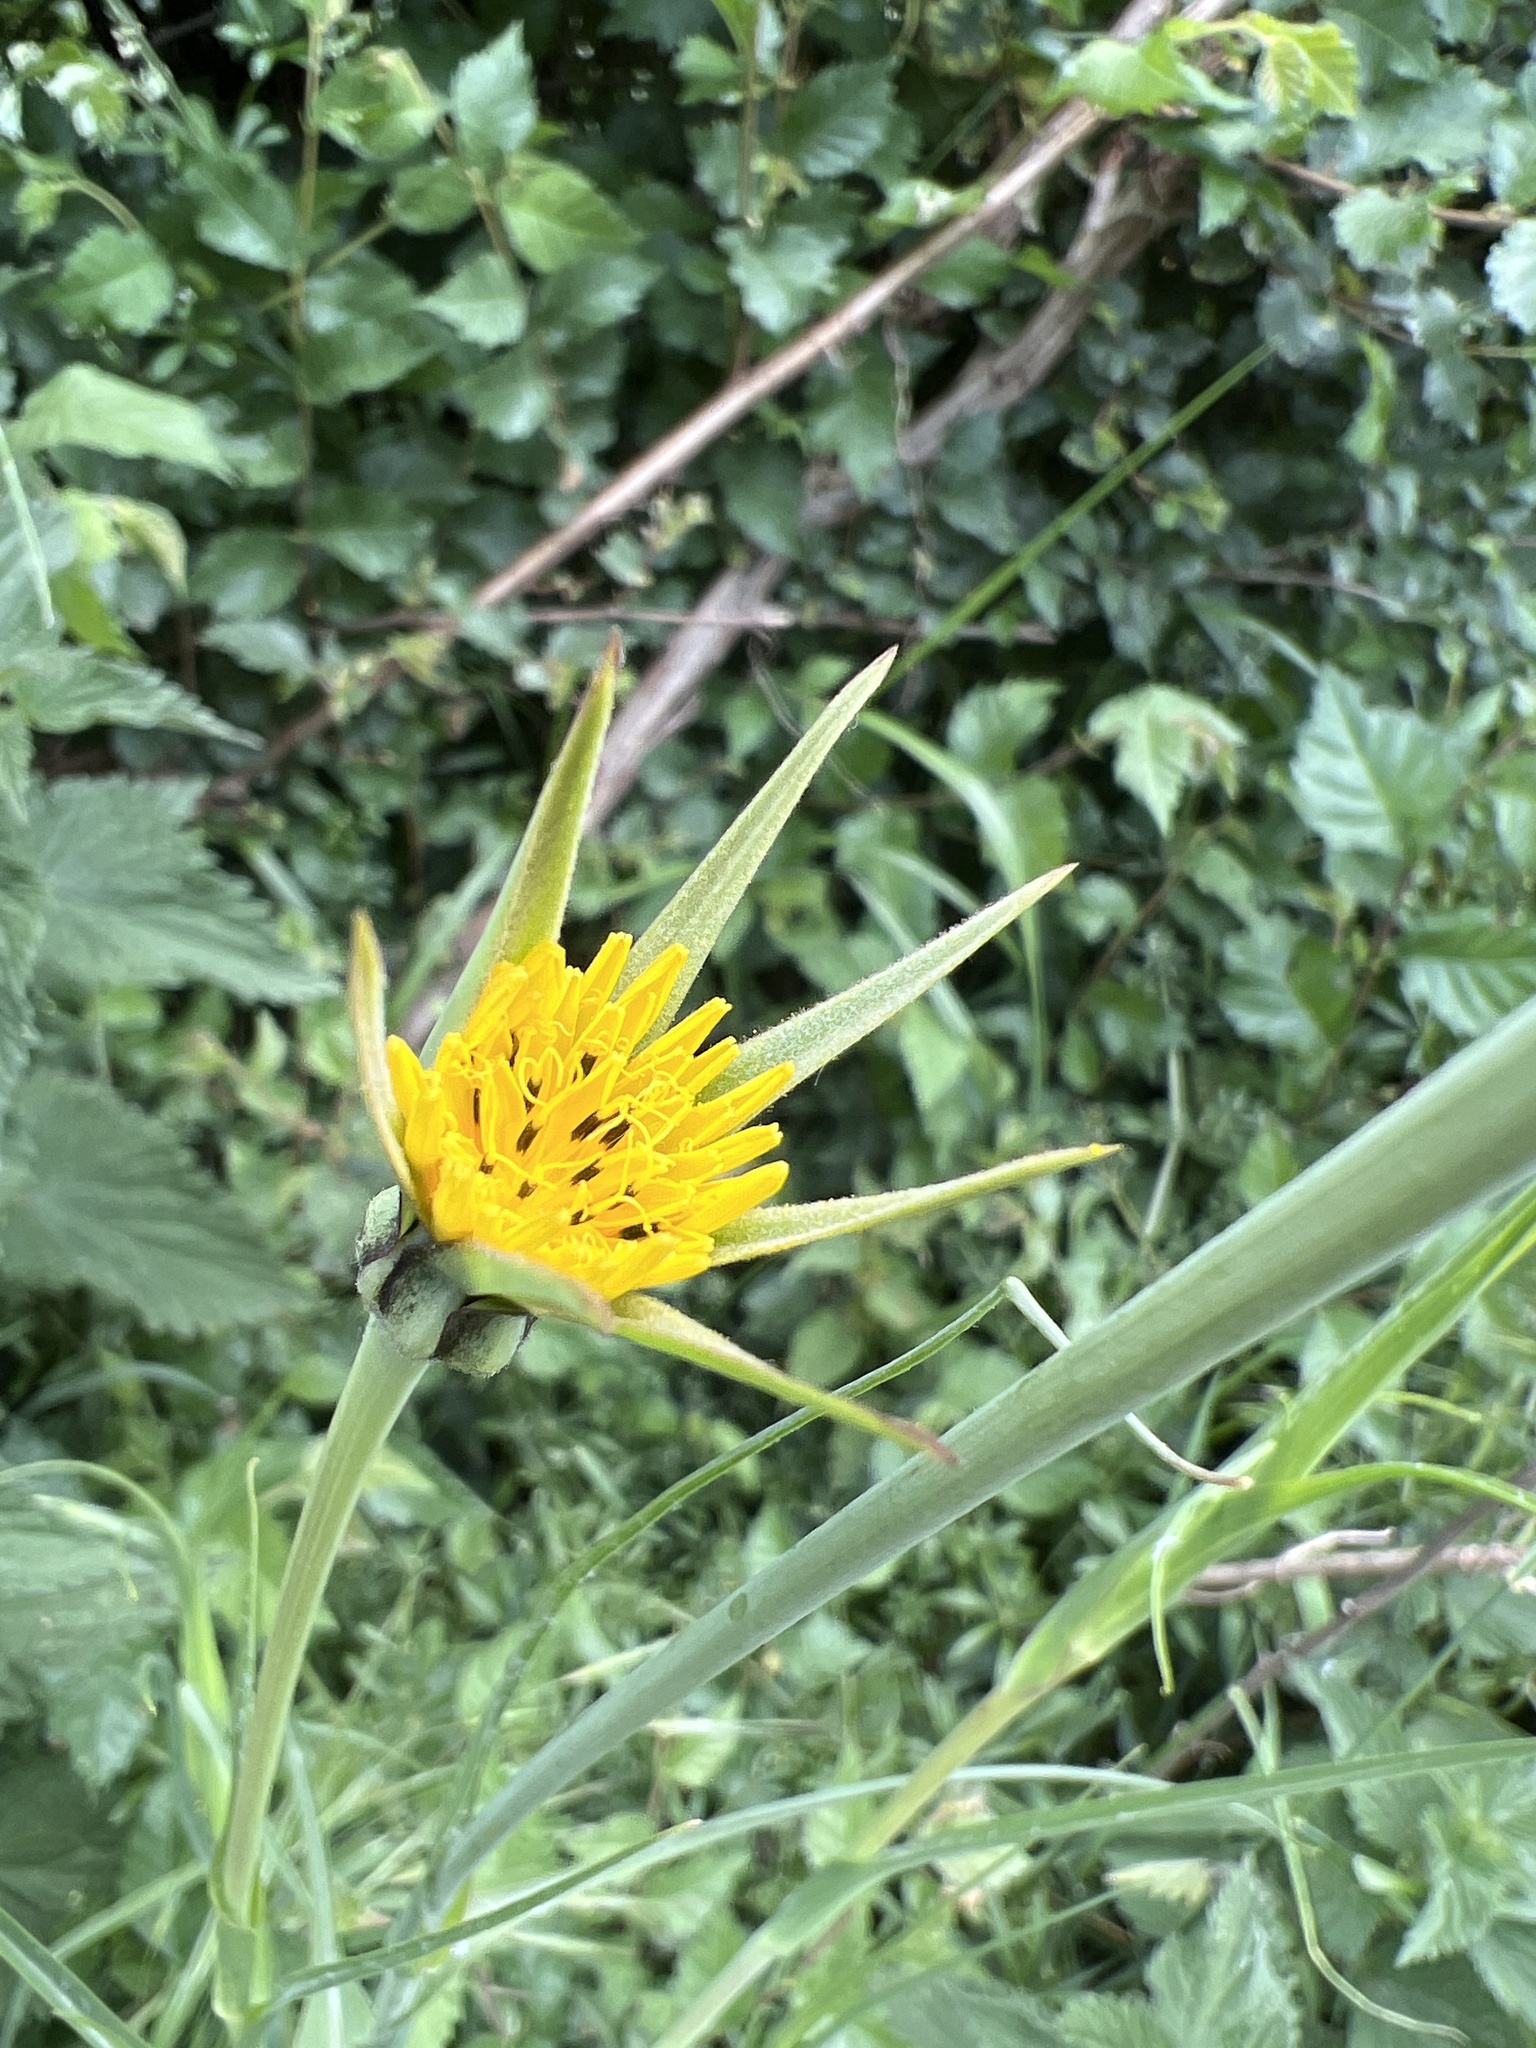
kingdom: Plantae
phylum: Tracheophyta
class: Magnoliopsida
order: Asterales
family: Asteraceae
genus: Tragopogon
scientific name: Tragopogon pratensis
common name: Goat's-beard
